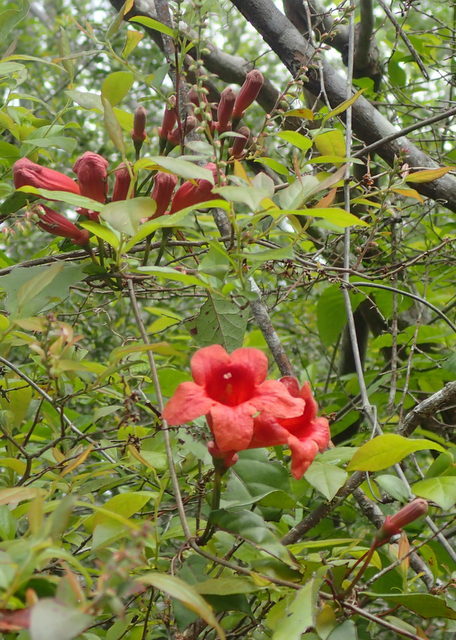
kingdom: Plantae
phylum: Tracheophyta
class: Magnoliopsida
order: Lamiales
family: Bignoniaceae
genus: Bignonia
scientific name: Bignonia capreolata
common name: Crossvine
